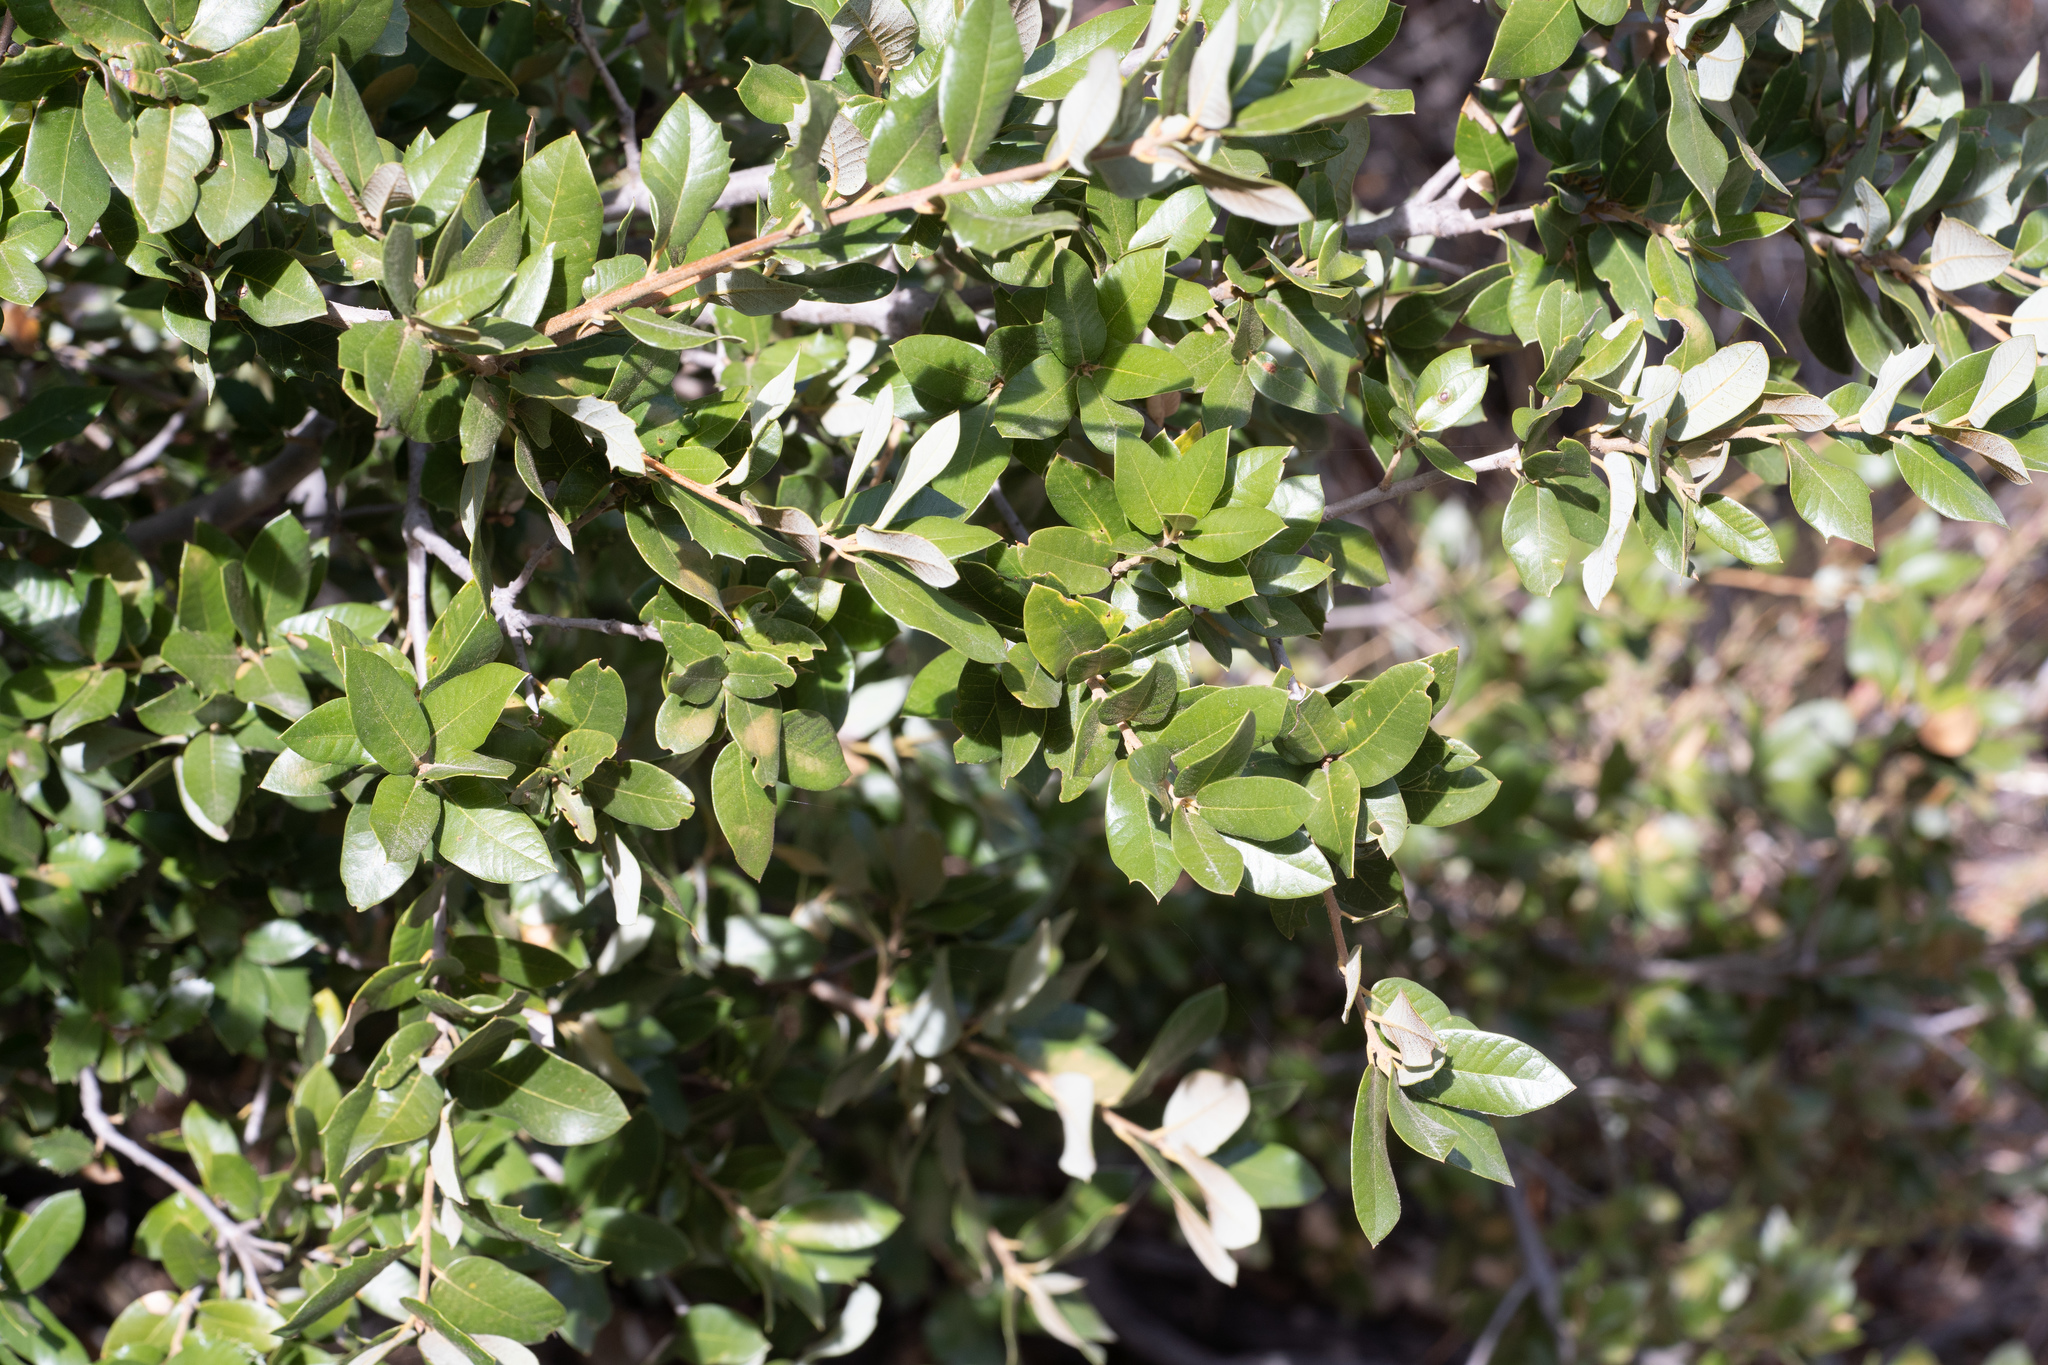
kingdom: Plantae
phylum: Tracheophyta
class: Magnoliopsida
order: Fagales
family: Fagaceae
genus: Quercus
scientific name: Quercus chrysolepis
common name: Canyon live oak
